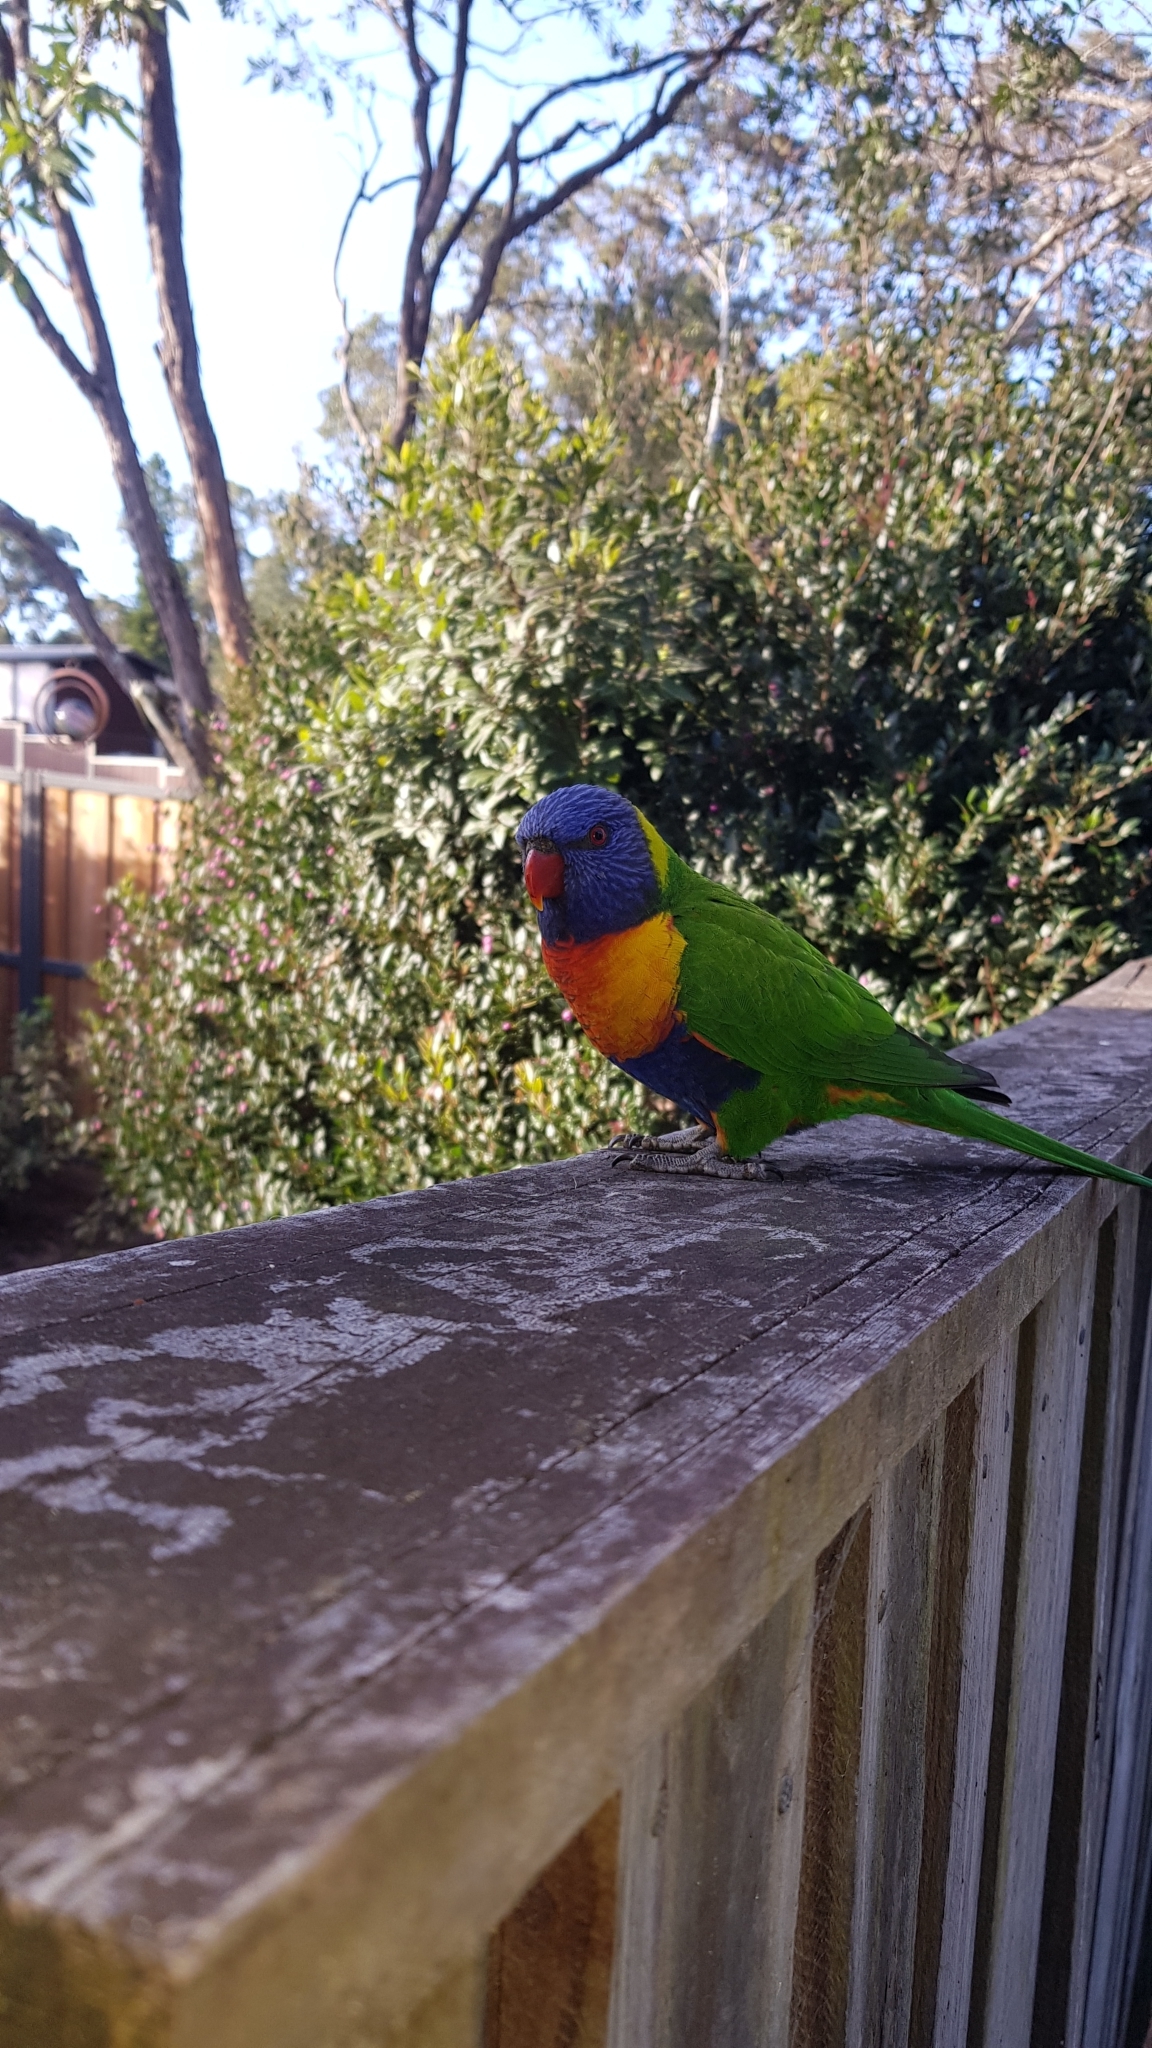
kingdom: Animalia
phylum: Chordata
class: Aves
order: Psittaciformes
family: Psittacidae
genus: Trichoglossus
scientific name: Trichoglossus haematodus
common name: Coconut lorikeet
